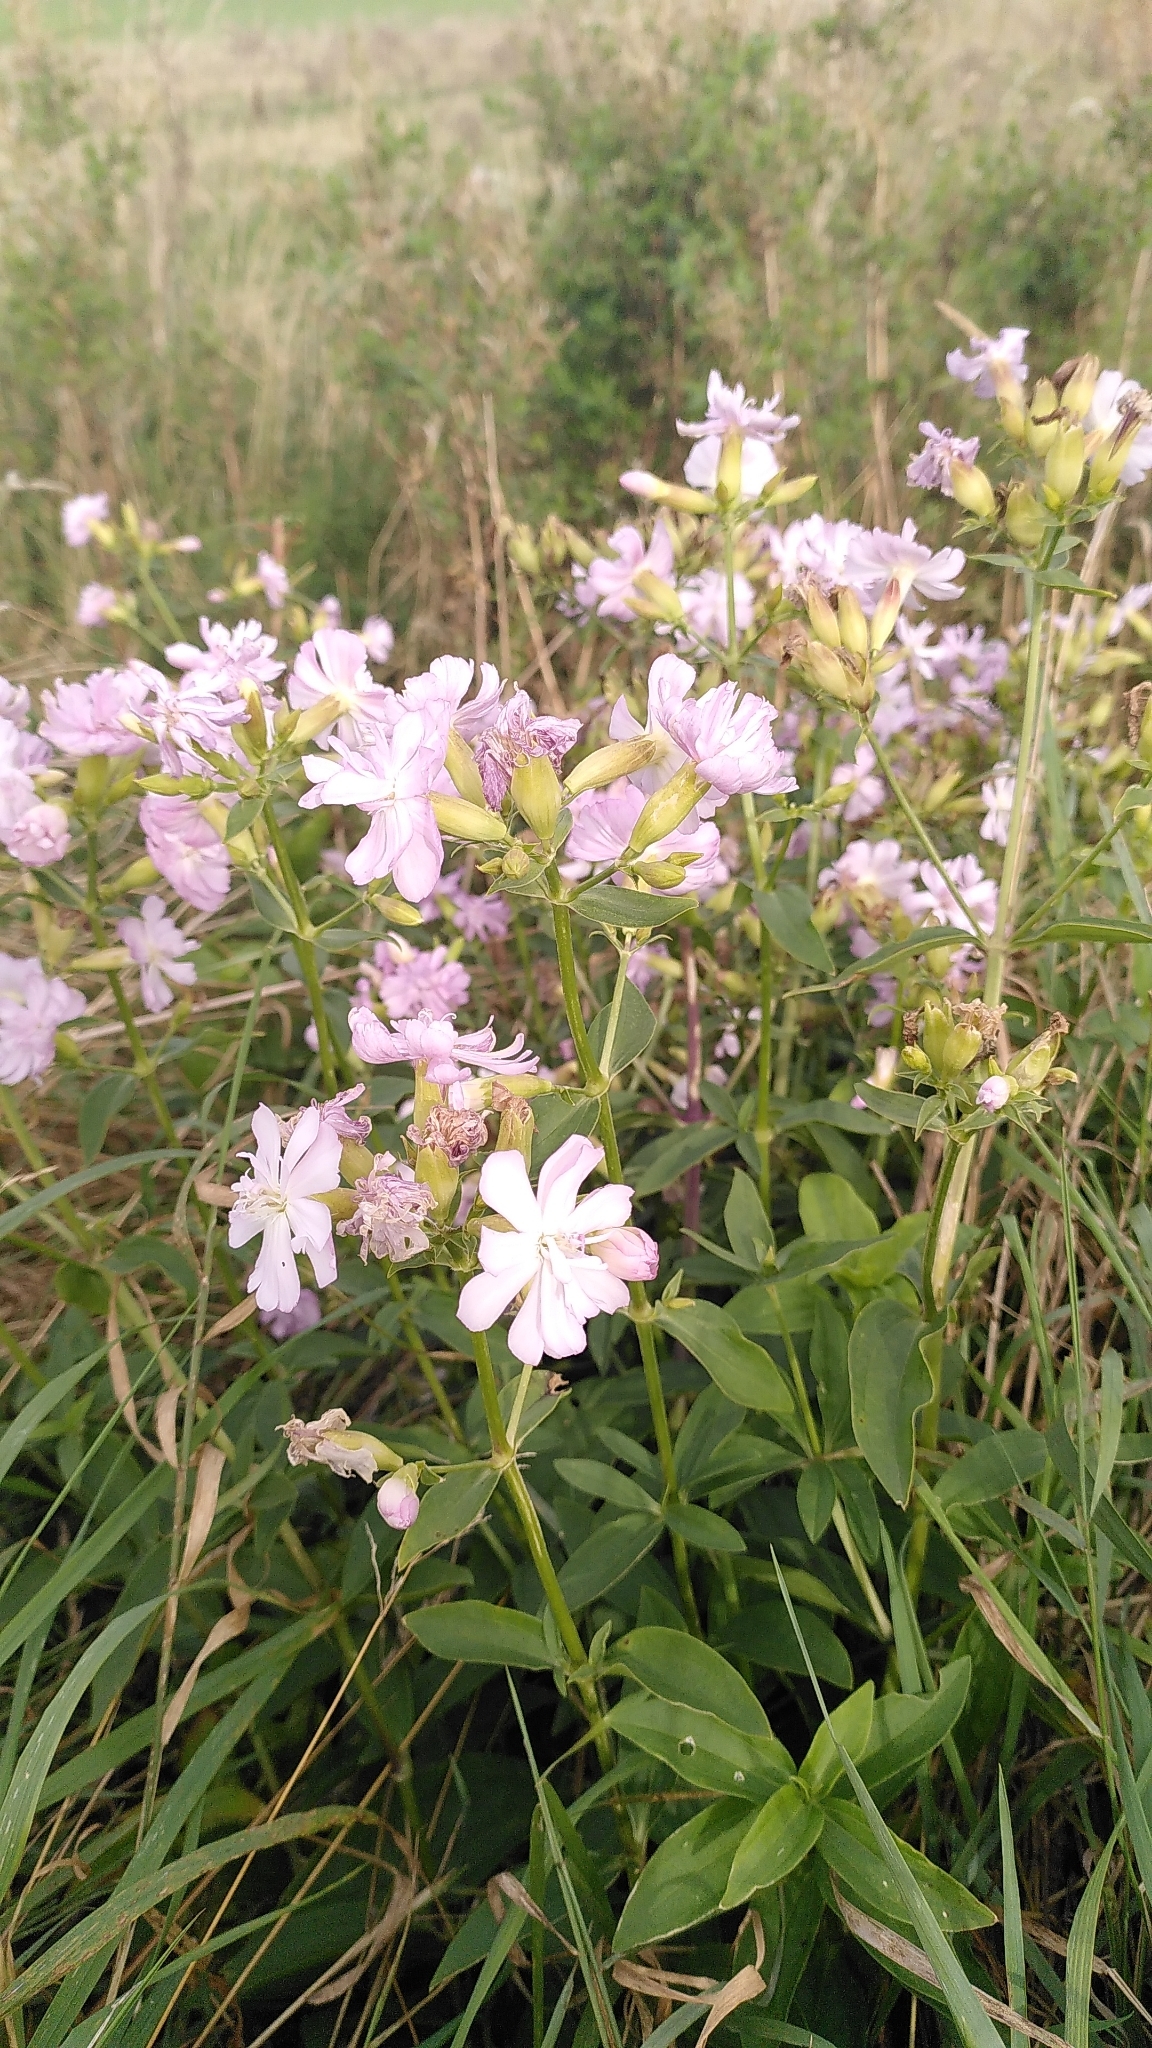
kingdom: Plantae
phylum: Tracheophyta
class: Magnoliopsida
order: Caryophyllales
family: Caryophyllaceae
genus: Saponaria
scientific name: Saponaria officinalis
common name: Soapwort
